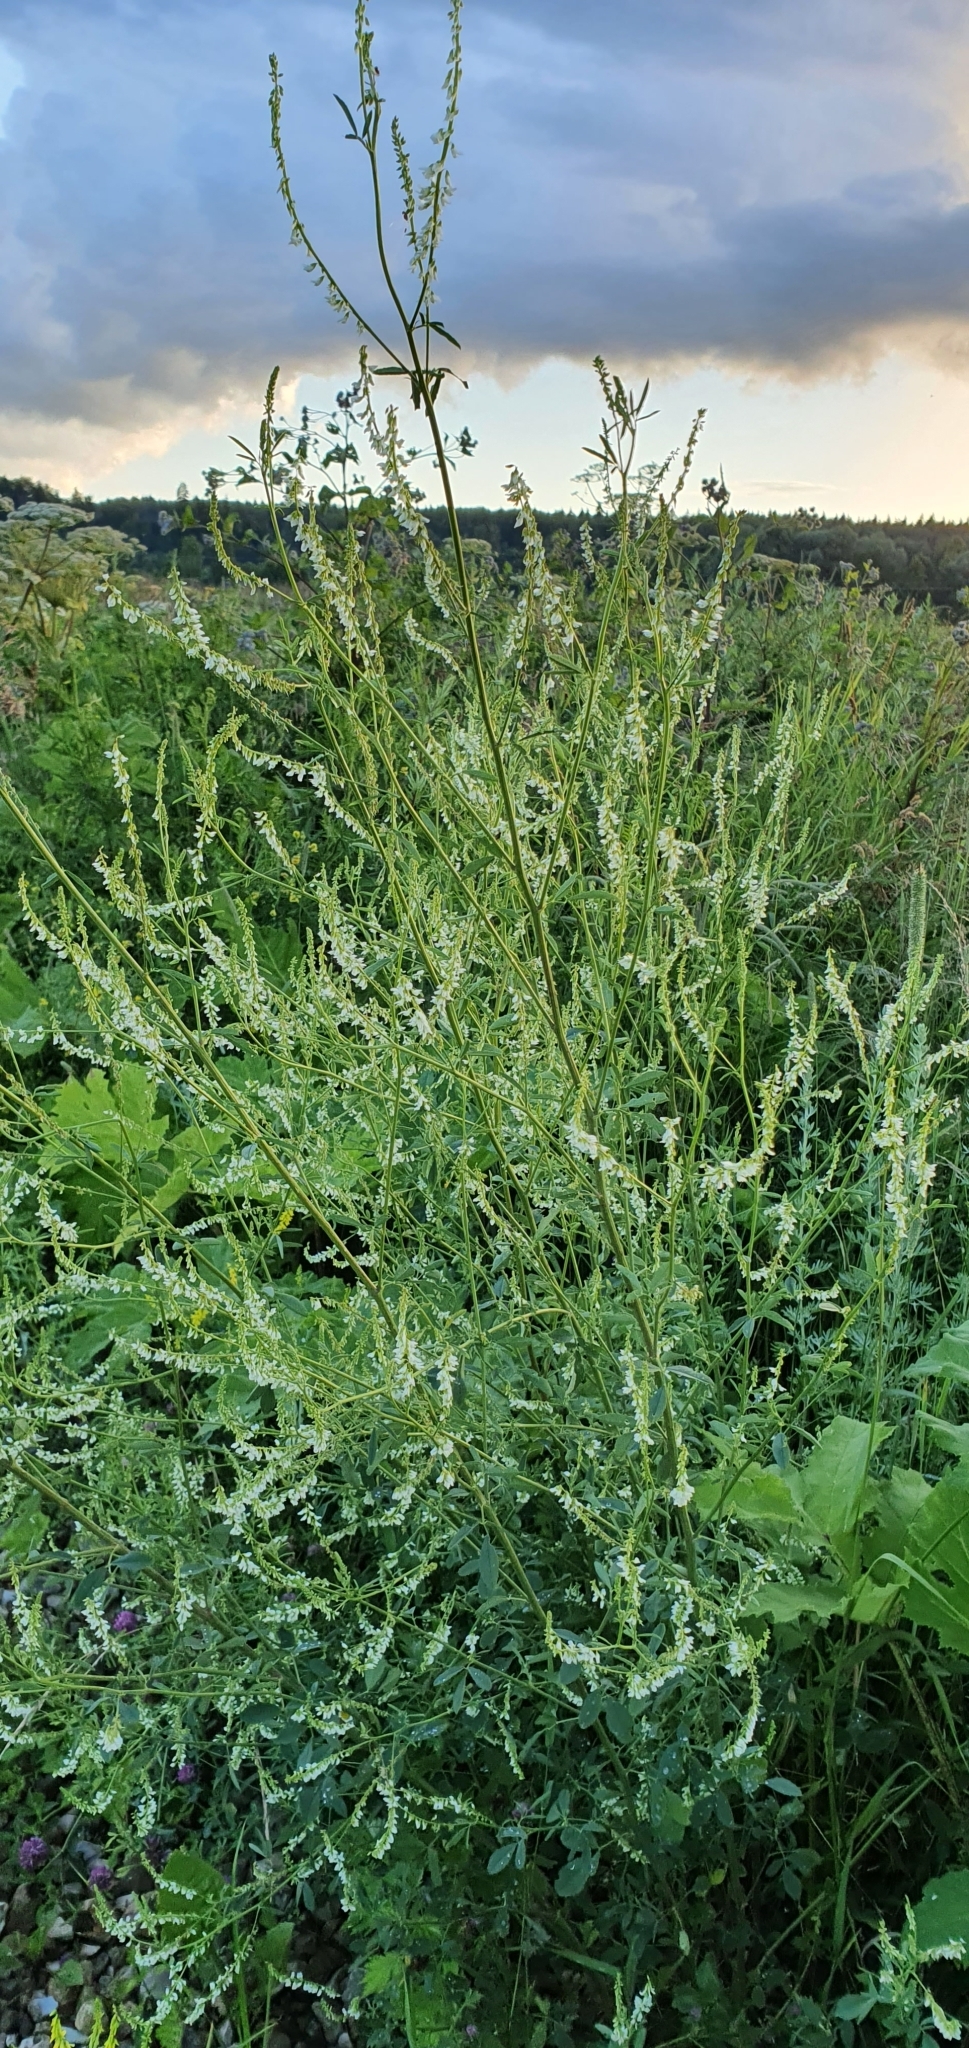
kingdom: Plantae
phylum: Tracheophyta
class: Magnoliopsida
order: Fabales
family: Fabaceae
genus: Melilotus
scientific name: Melilotus albus
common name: White melilot
